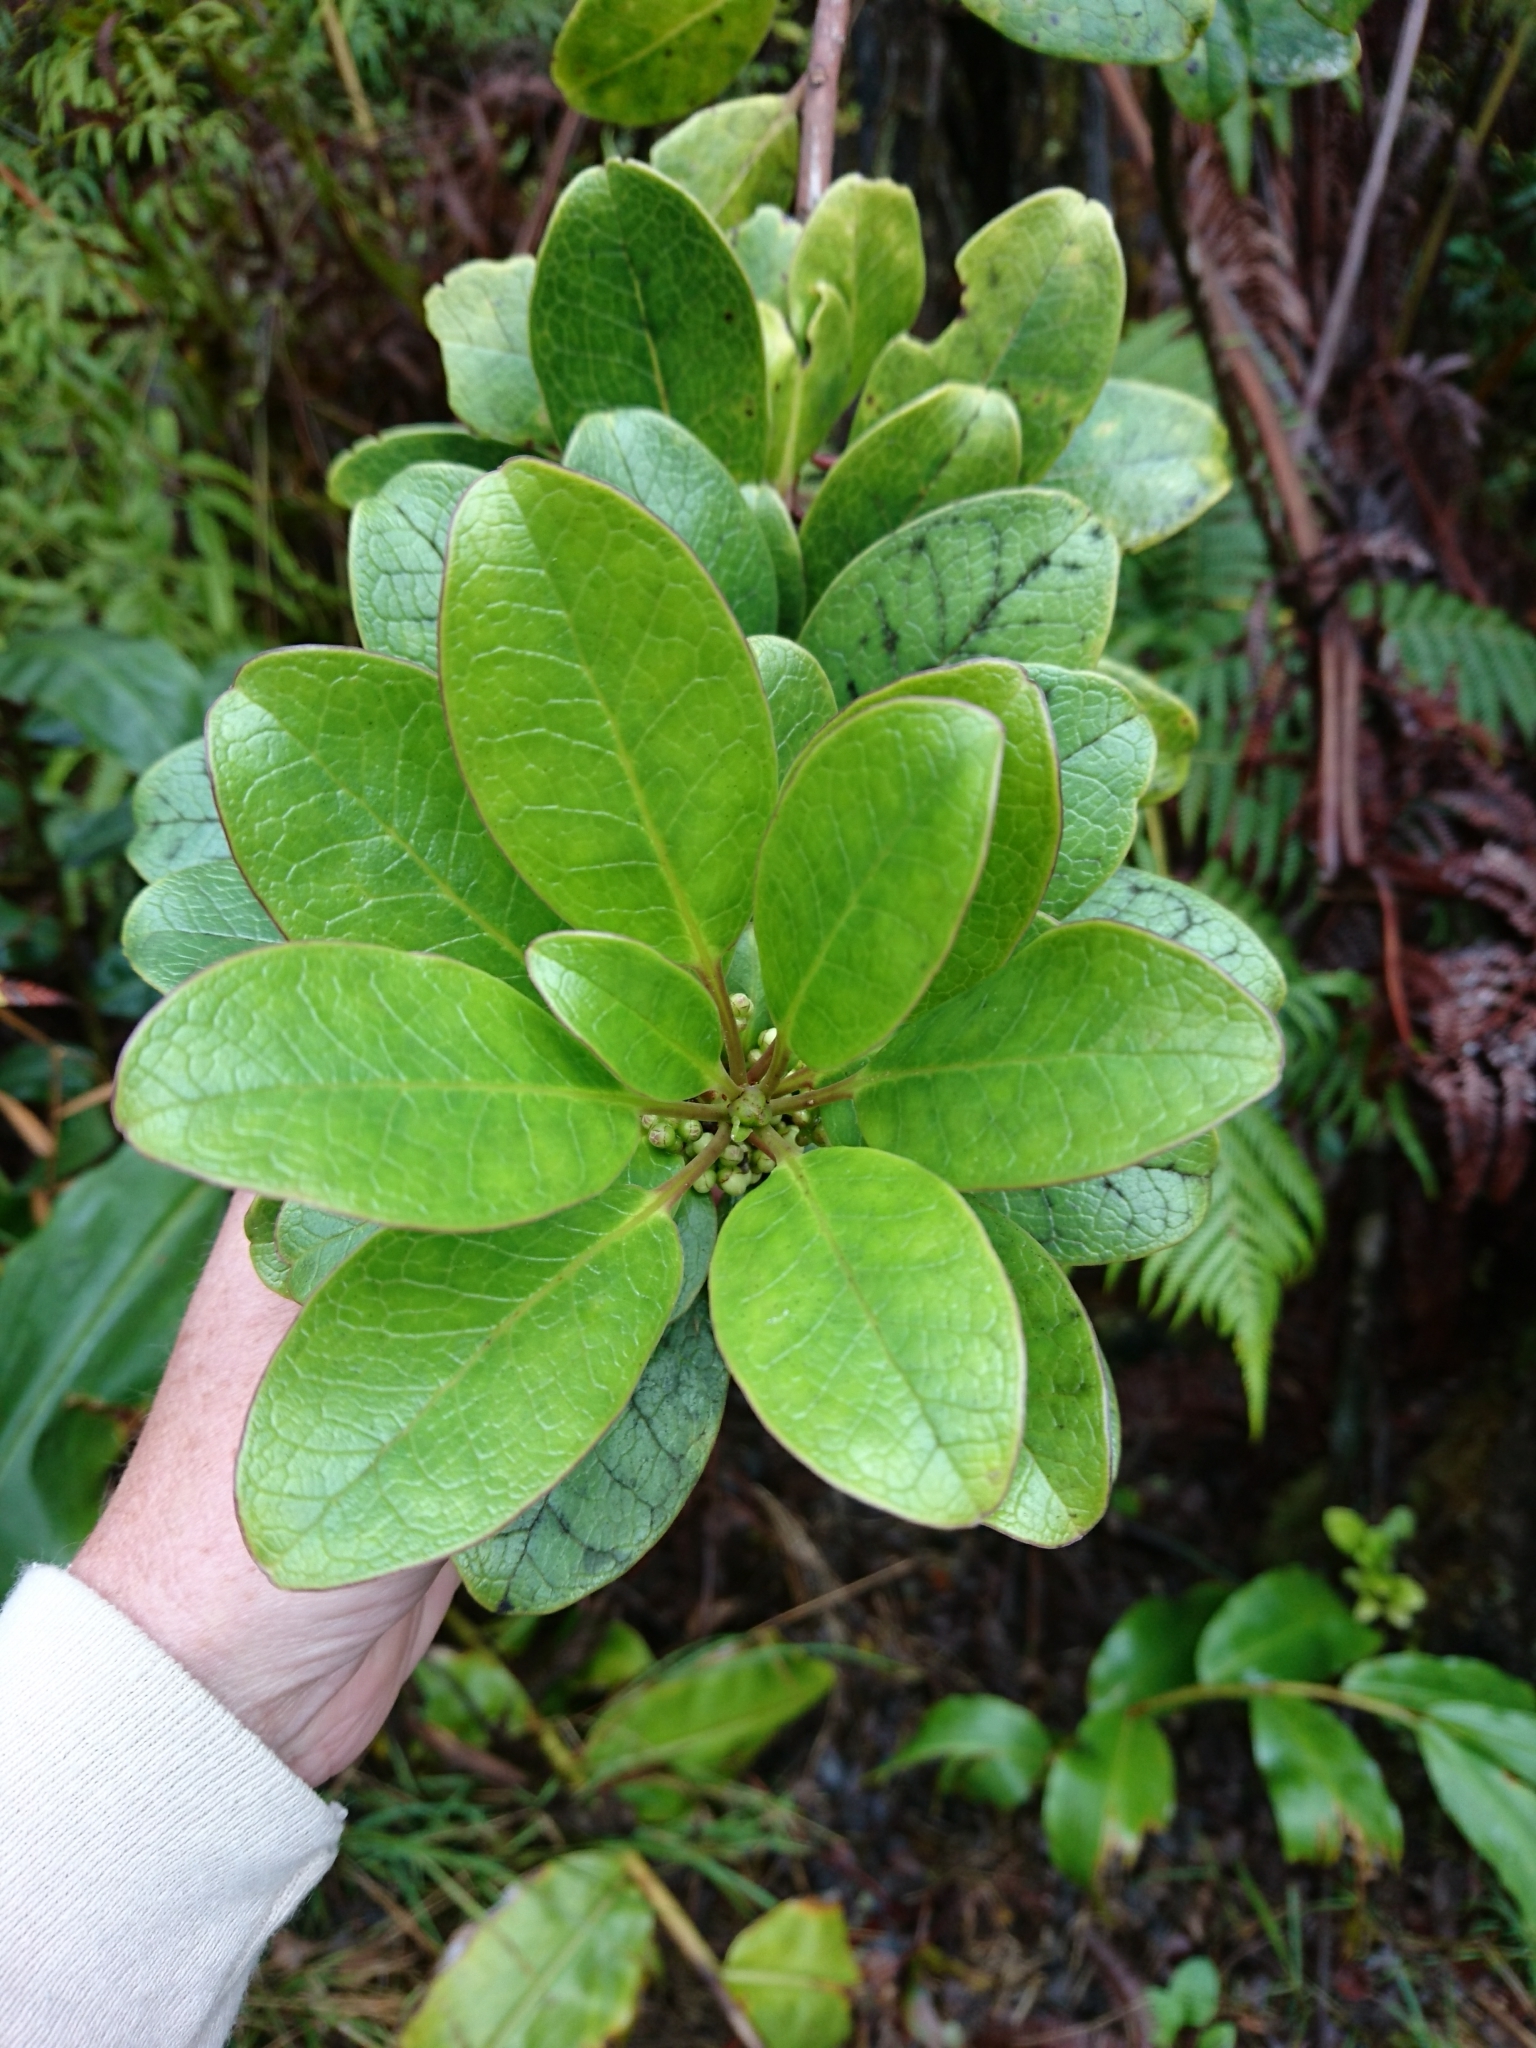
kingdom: Plantae
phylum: Tracheophyta
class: Magnoliopsida
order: Aquifoliales
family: Aquifoliaceae
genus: Ilex
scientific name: Ilex anomala
